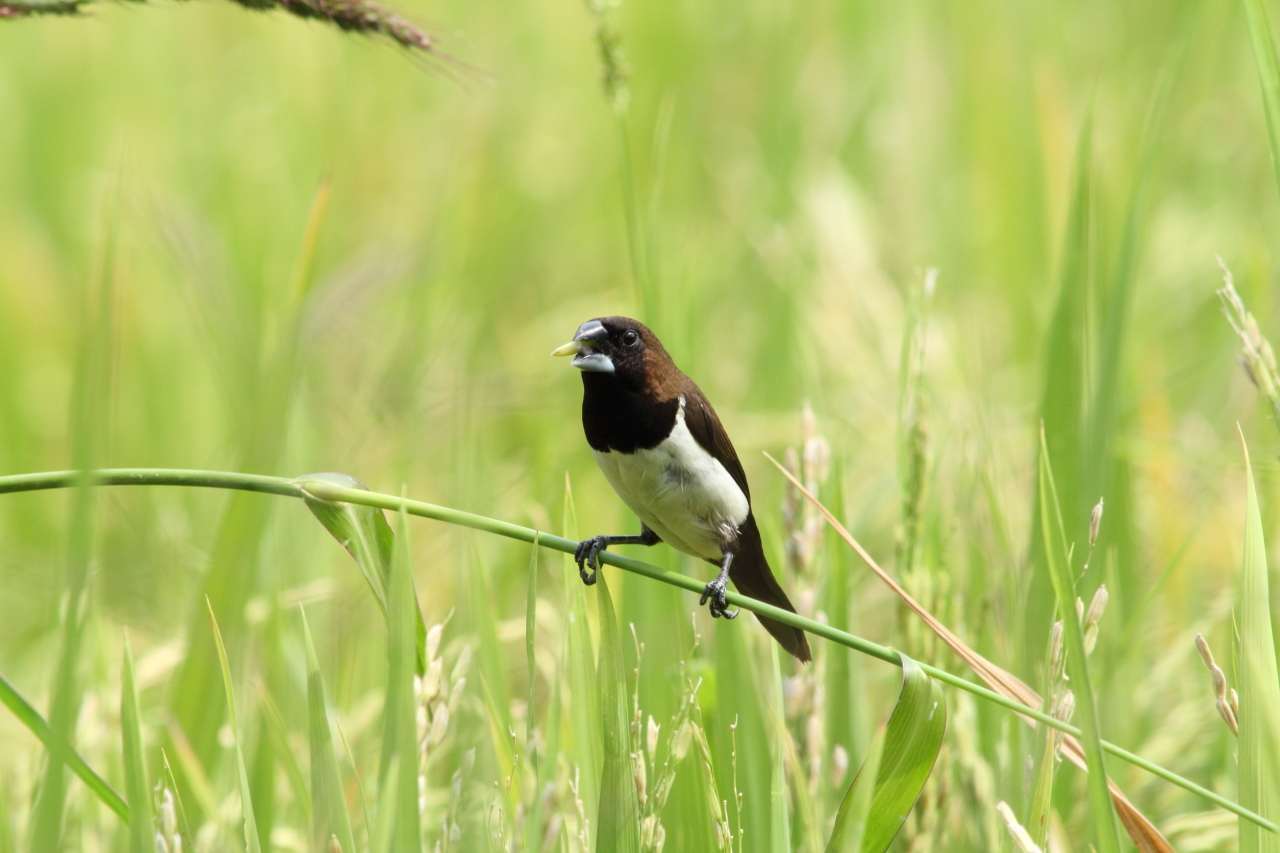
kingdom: Animalia
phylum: Chordata
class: Aves
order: Passeriformes
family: Estrildidae
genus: Lonchura
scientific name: Lonchura leucogastroides
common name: Javan munia
